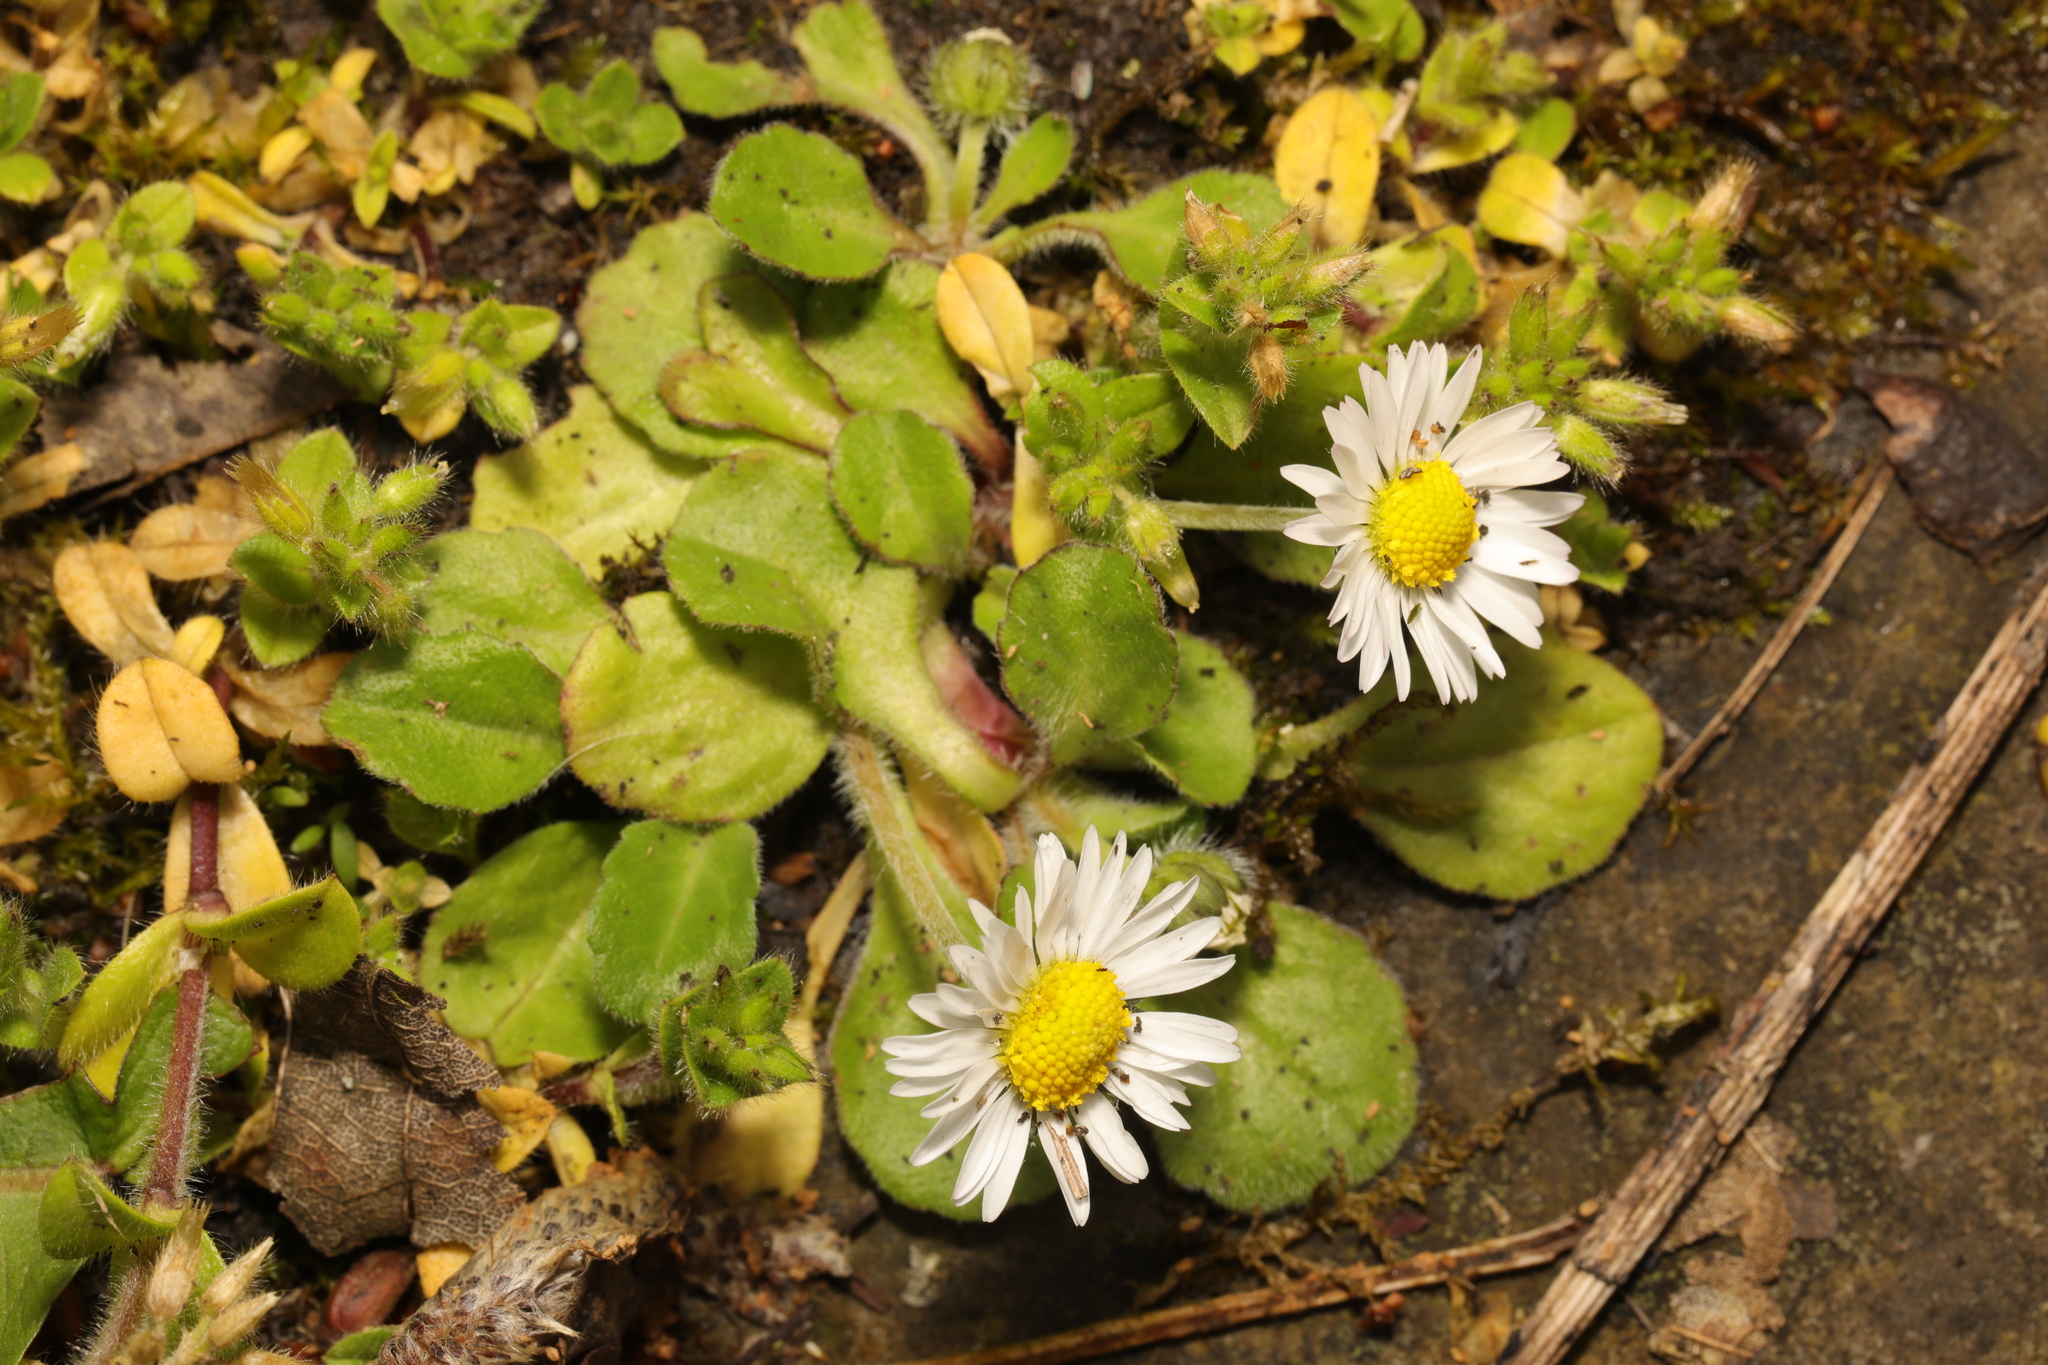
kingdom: Plantae
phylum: Tracheophyta
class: Magnoliopsida
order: Asterales
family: Asteraceae
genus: Bellis
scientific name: Bellis perennis
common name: Lawndaisy
